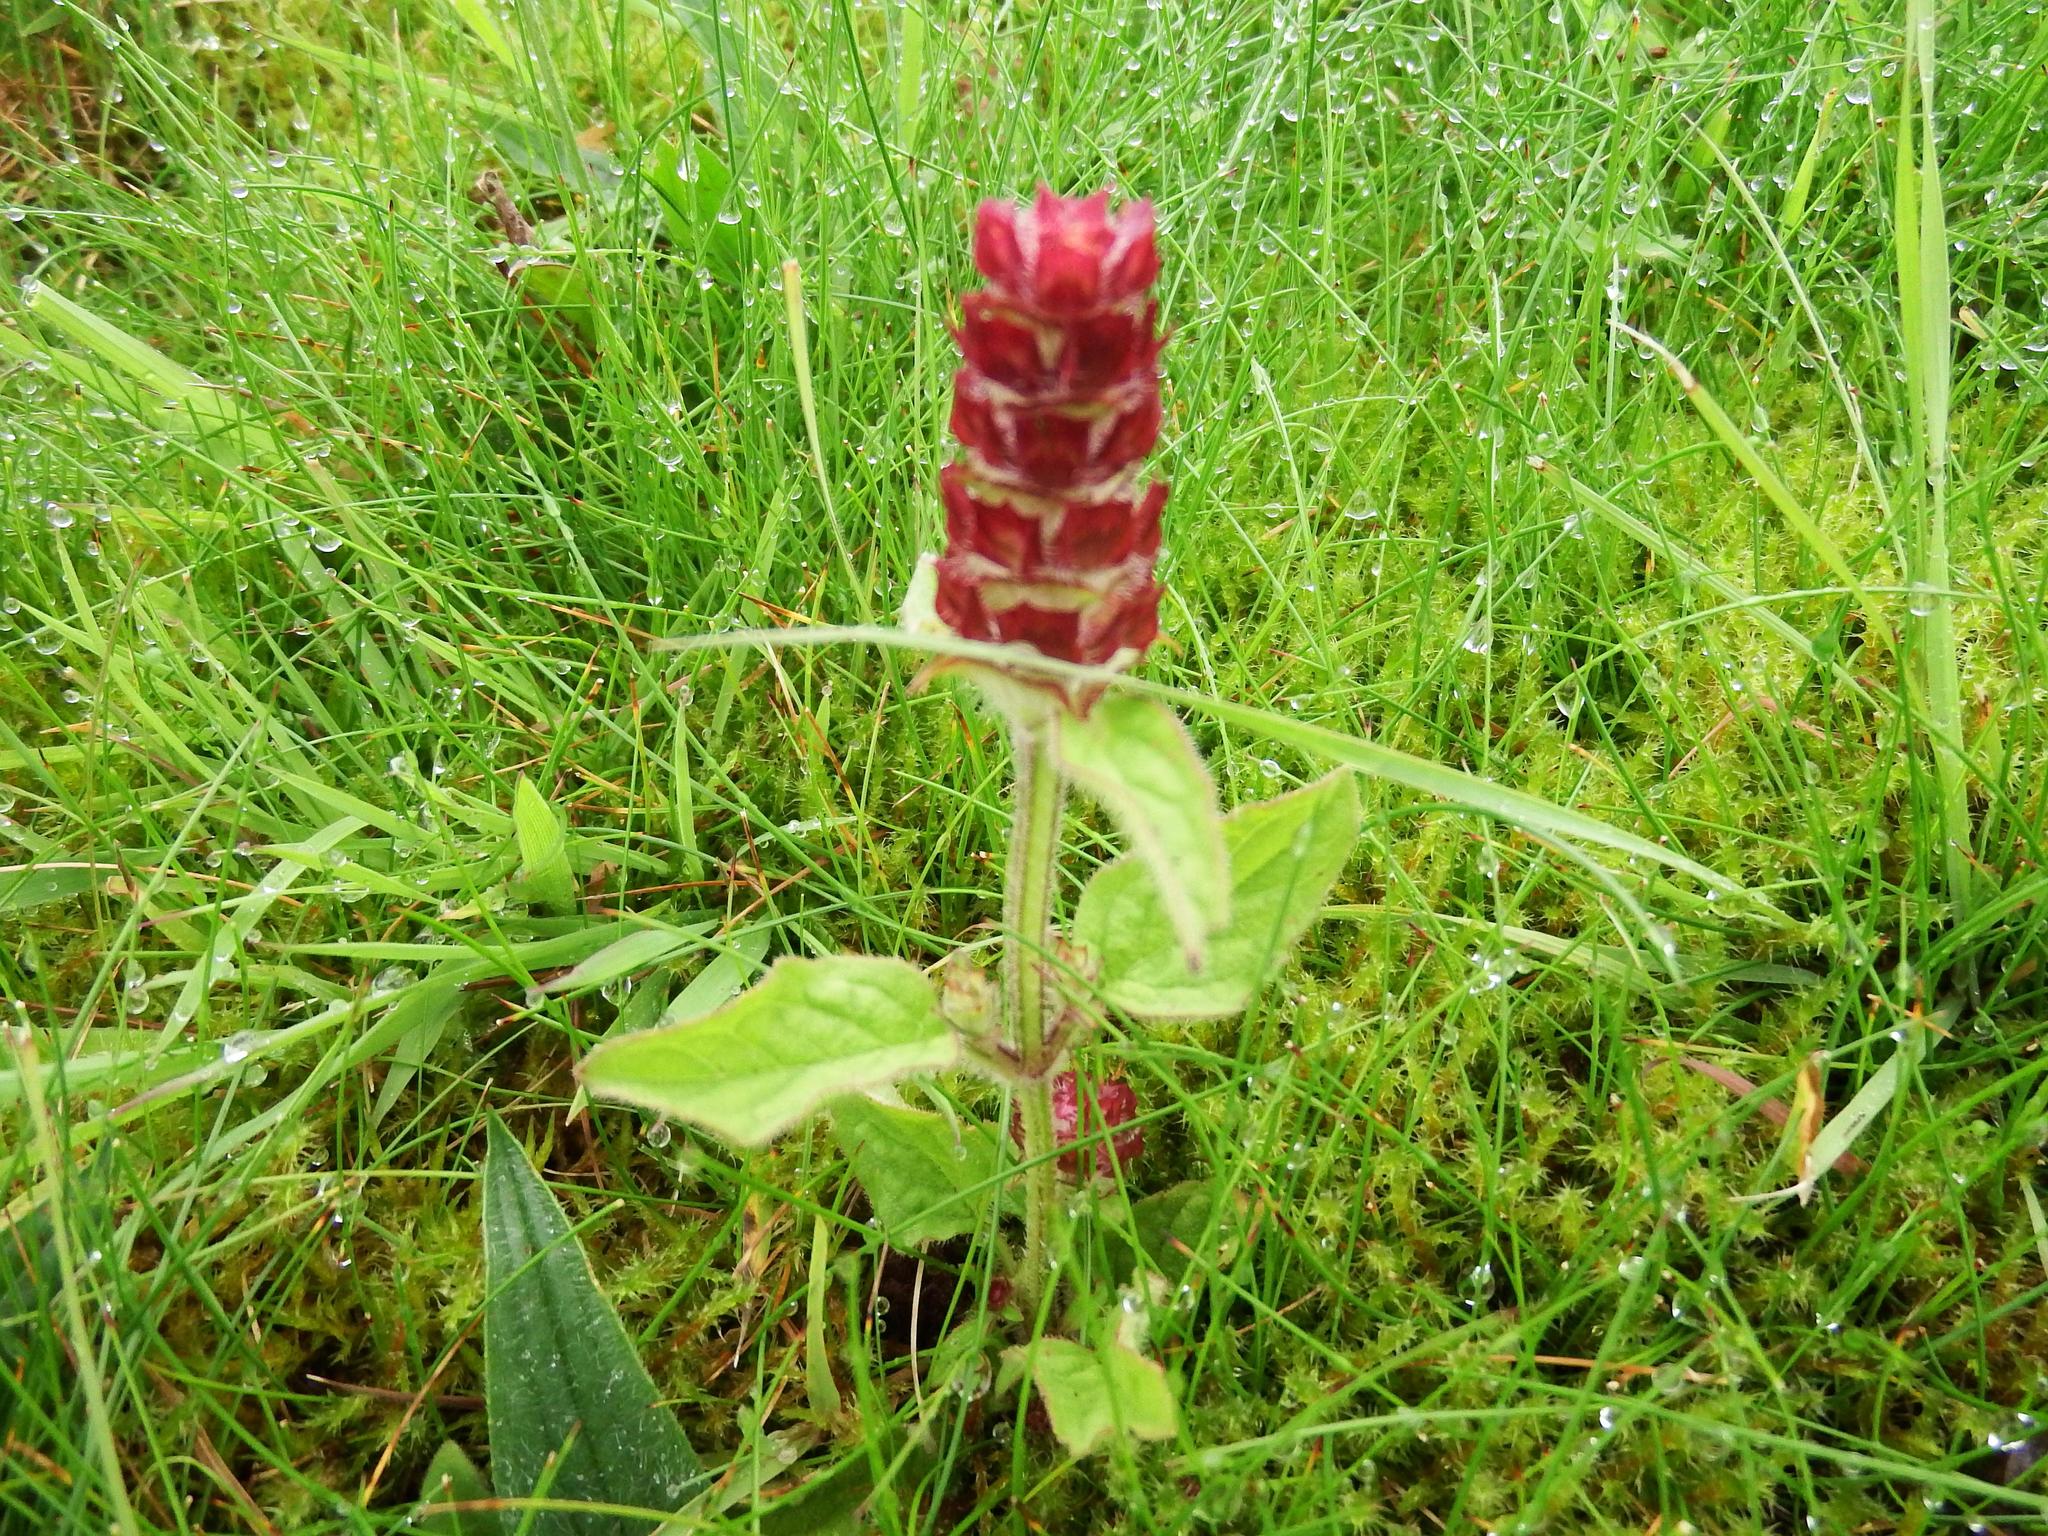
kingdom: Plantae
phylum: Tracheophyta
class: Magnoliopsida
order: Lamiales
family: Lamiaceae
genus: Prunella
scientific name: Prunella vulgaris
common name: Heal-all
